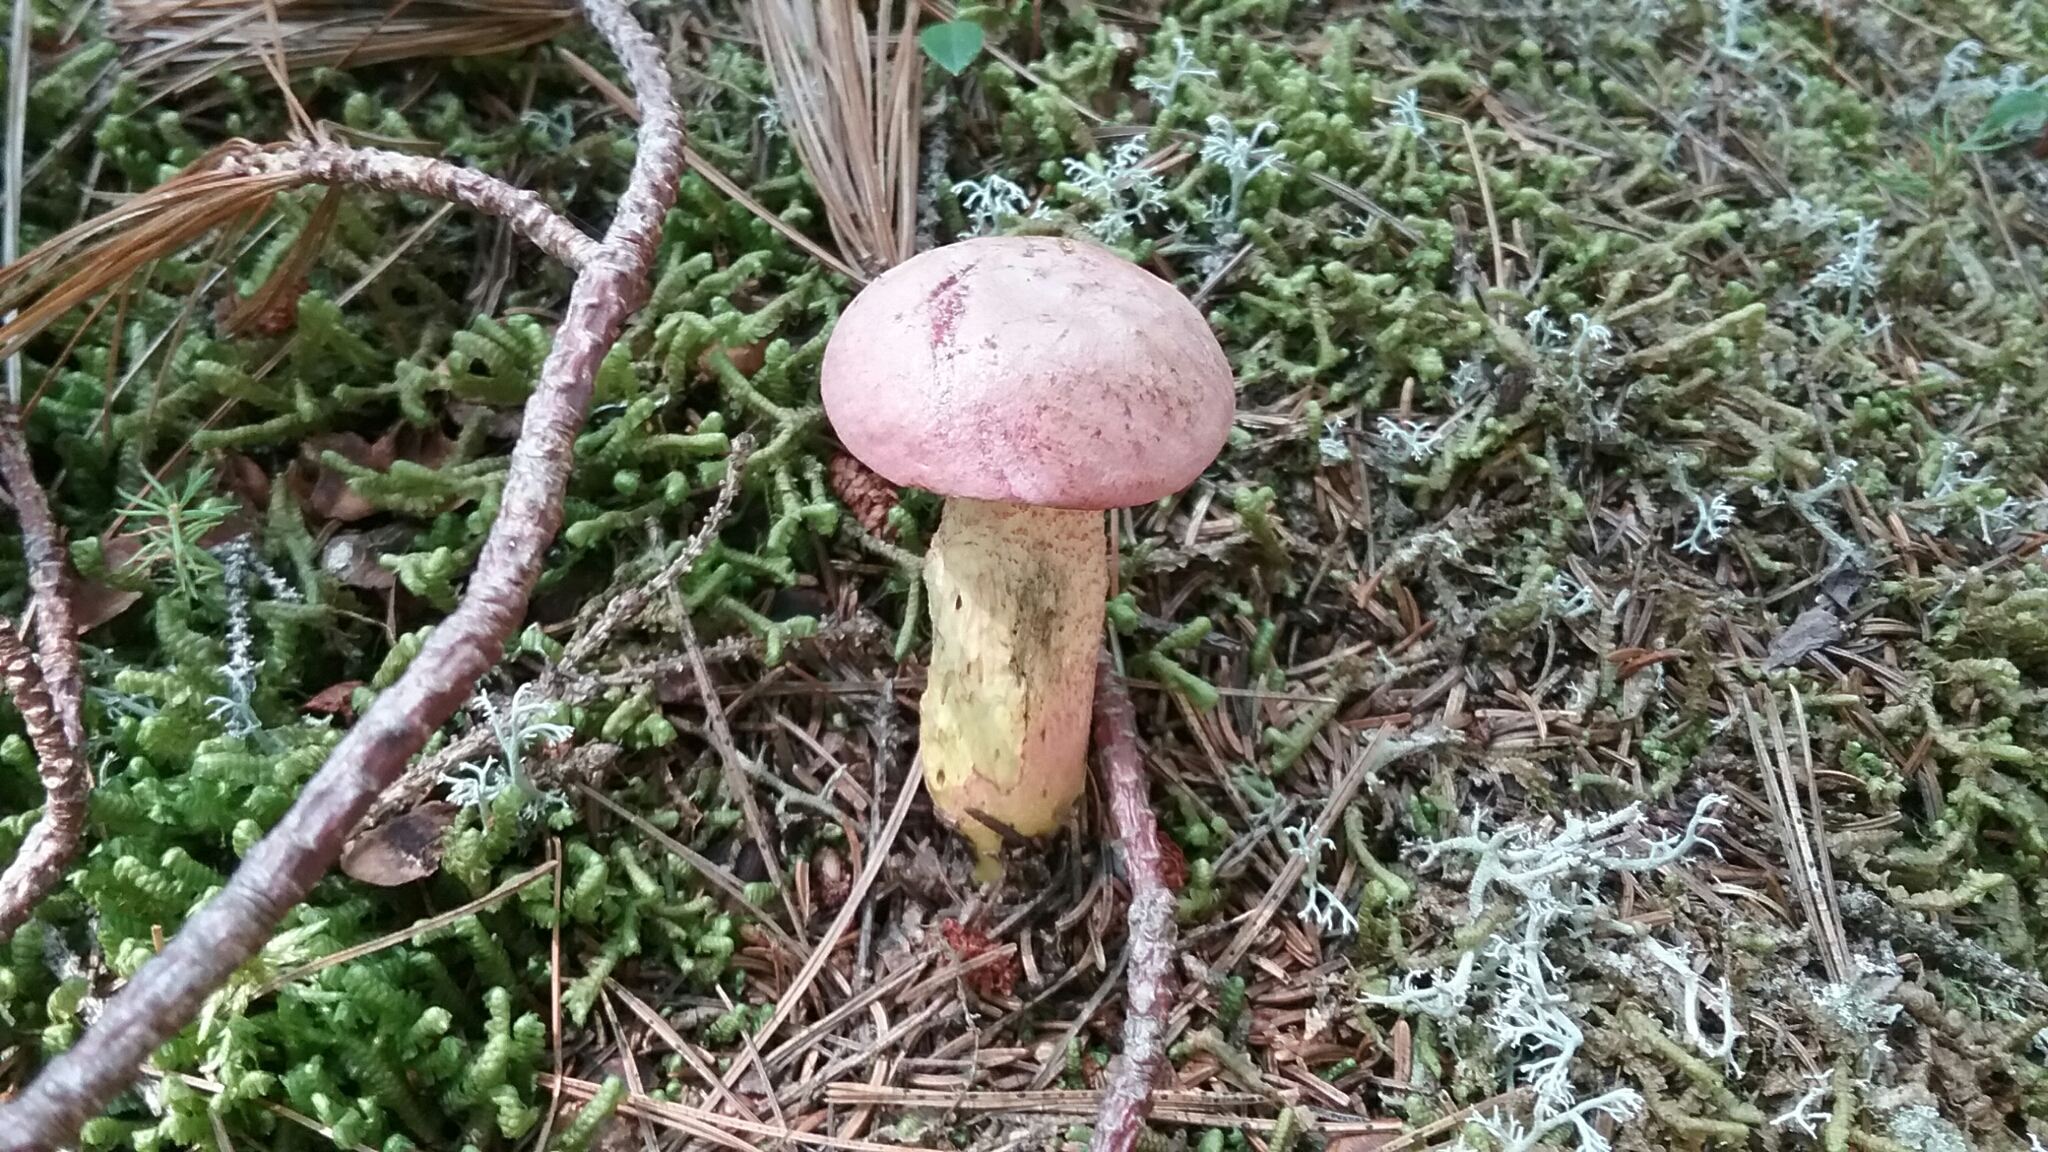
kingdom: Fungi
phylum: Basidiomycota
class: Agaricomycetes
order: Boletales
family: Boletaceae
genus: Harrya
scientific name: Harrya chromipes
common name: Chrome-footed bolete
